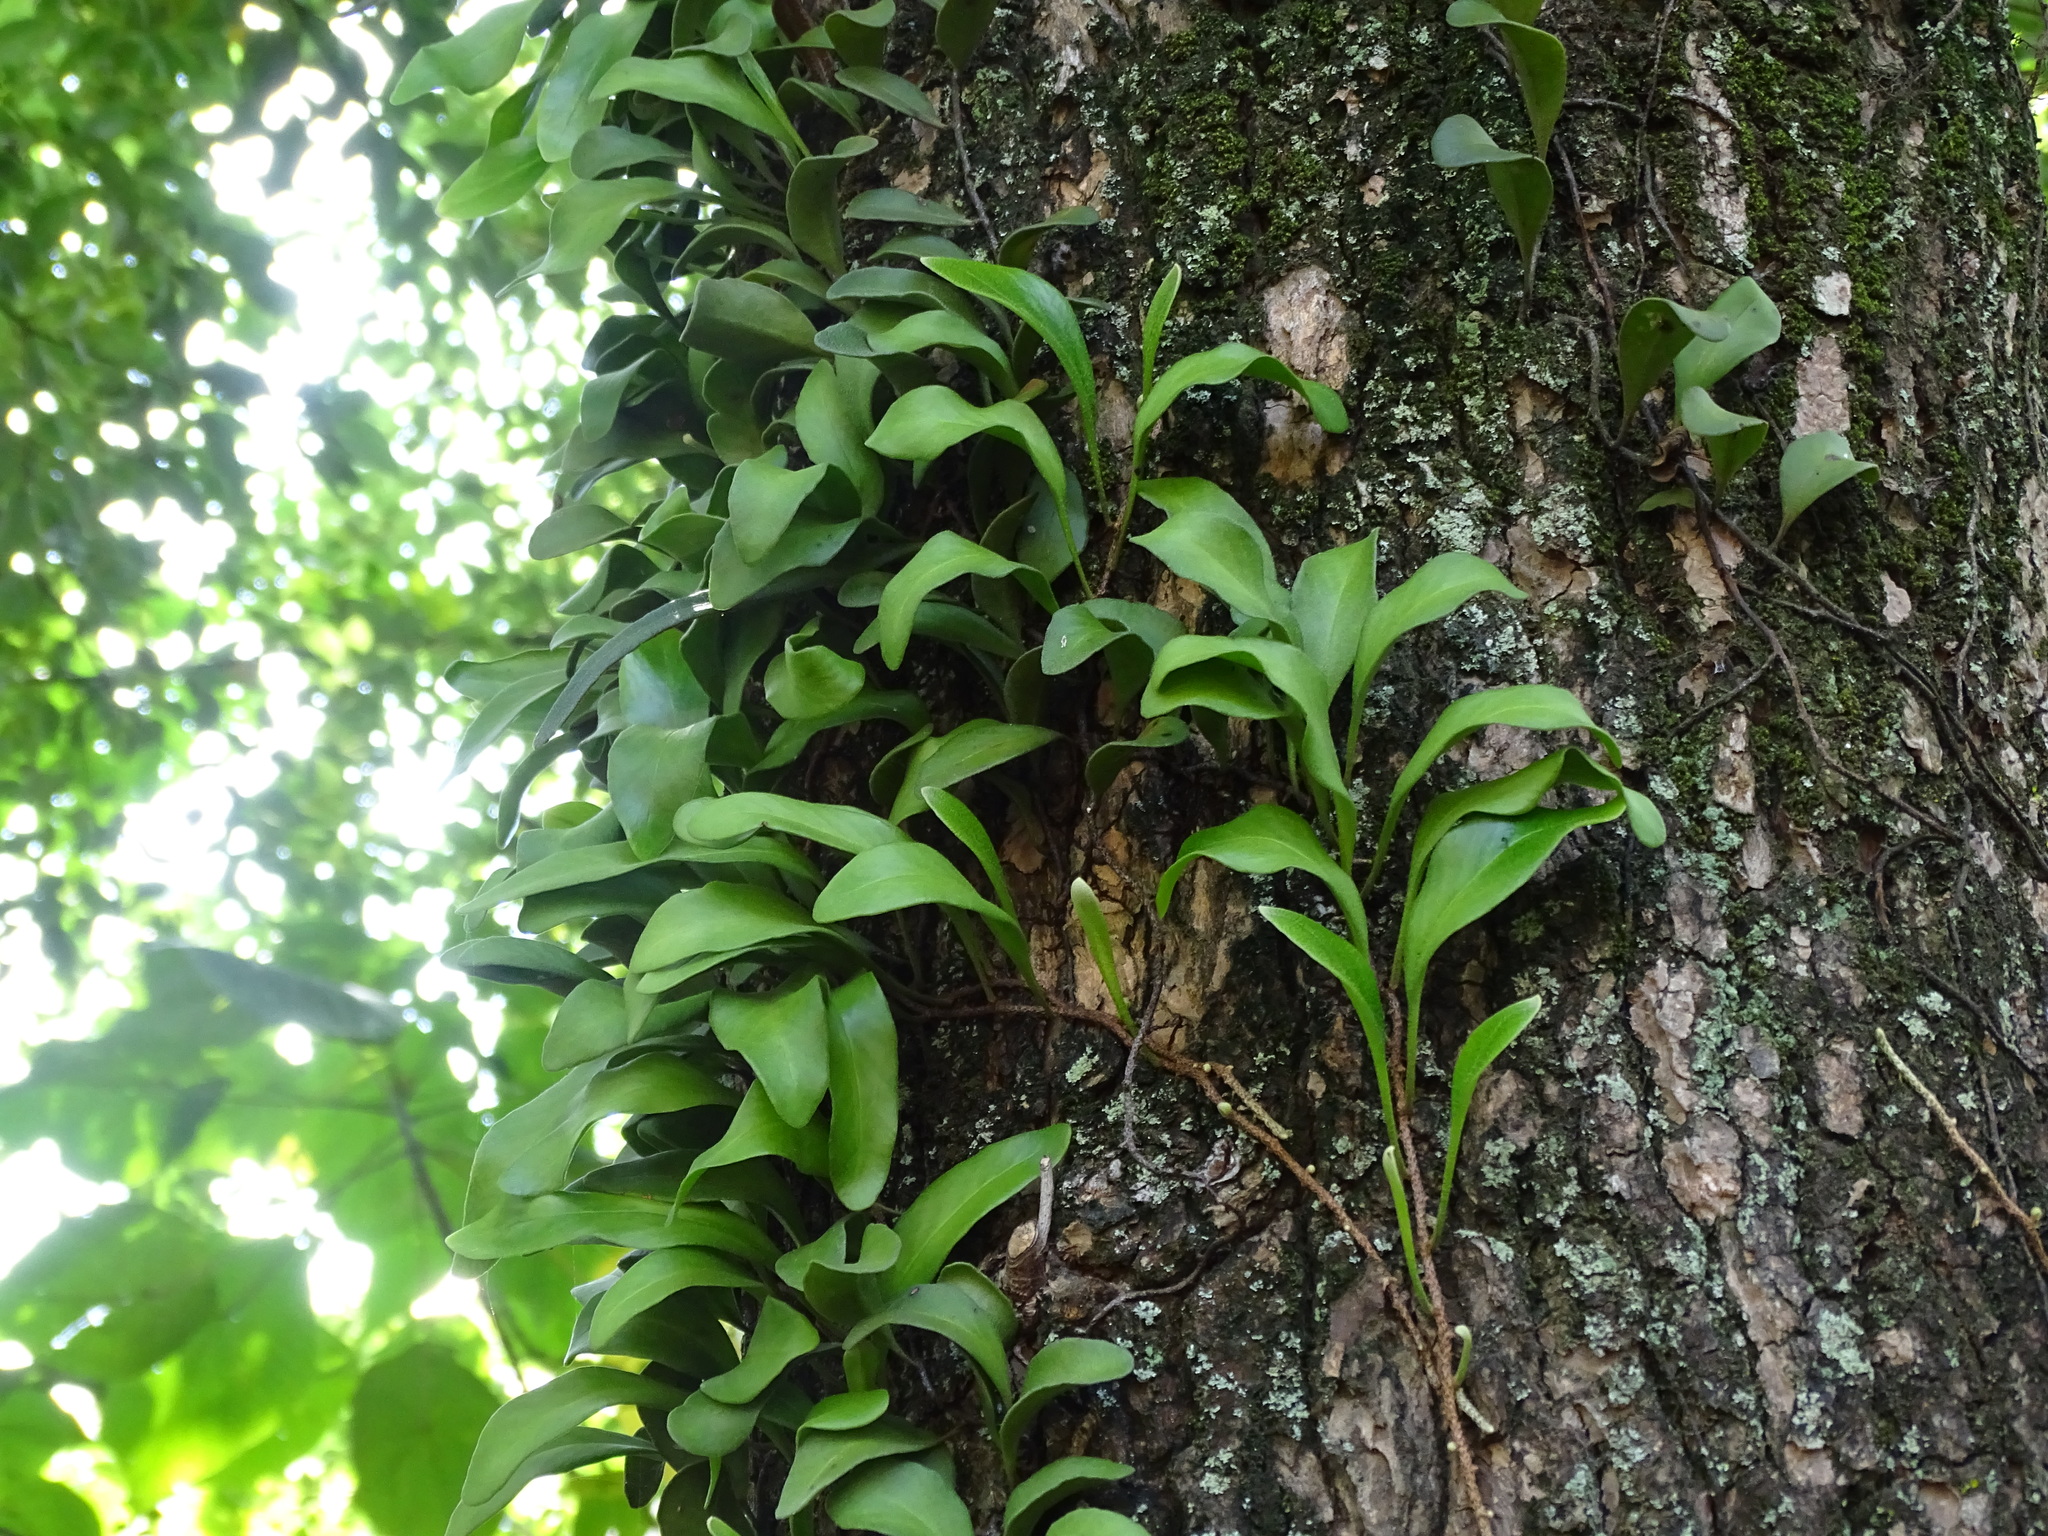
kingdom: Plantae
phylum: Tracheophyta
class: Polypodiopsida
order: Polypodiales
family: Polypodiaceae
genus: Pyrrosia
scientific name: Pyrrosia lanceolata
